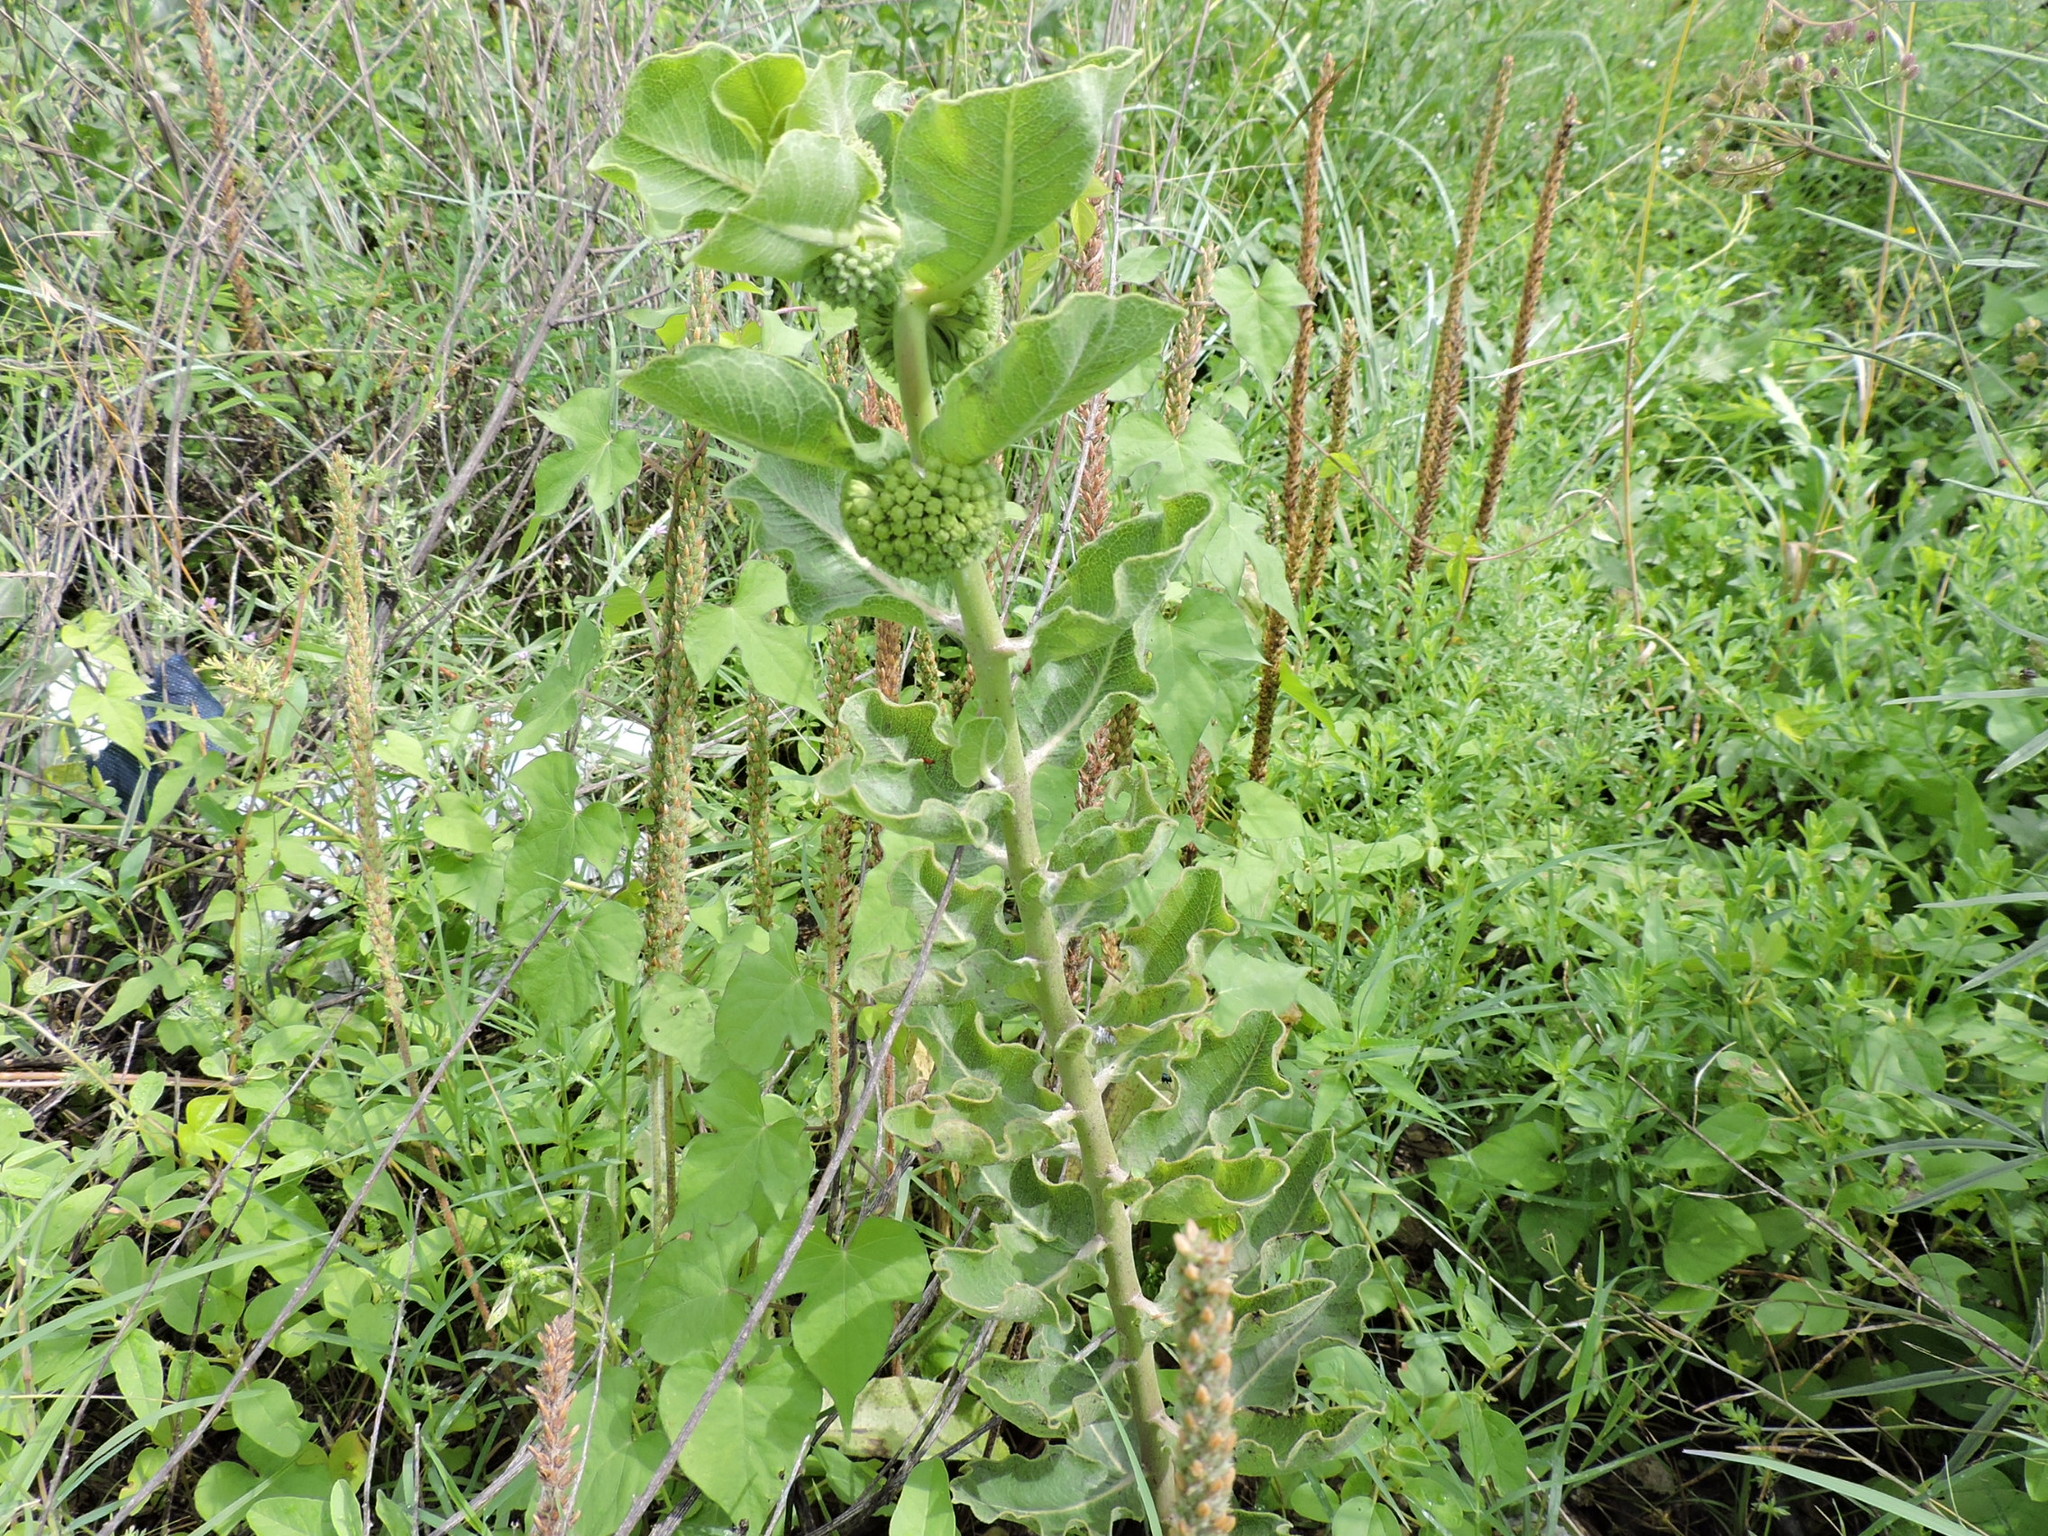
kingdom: Plantae
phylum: Tracheophyta
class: Magnoliopsida
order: Gentianales
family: Apocynaceae
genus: Asclepias
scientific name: Asclepias viridiflora
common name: Green comet milkweed
